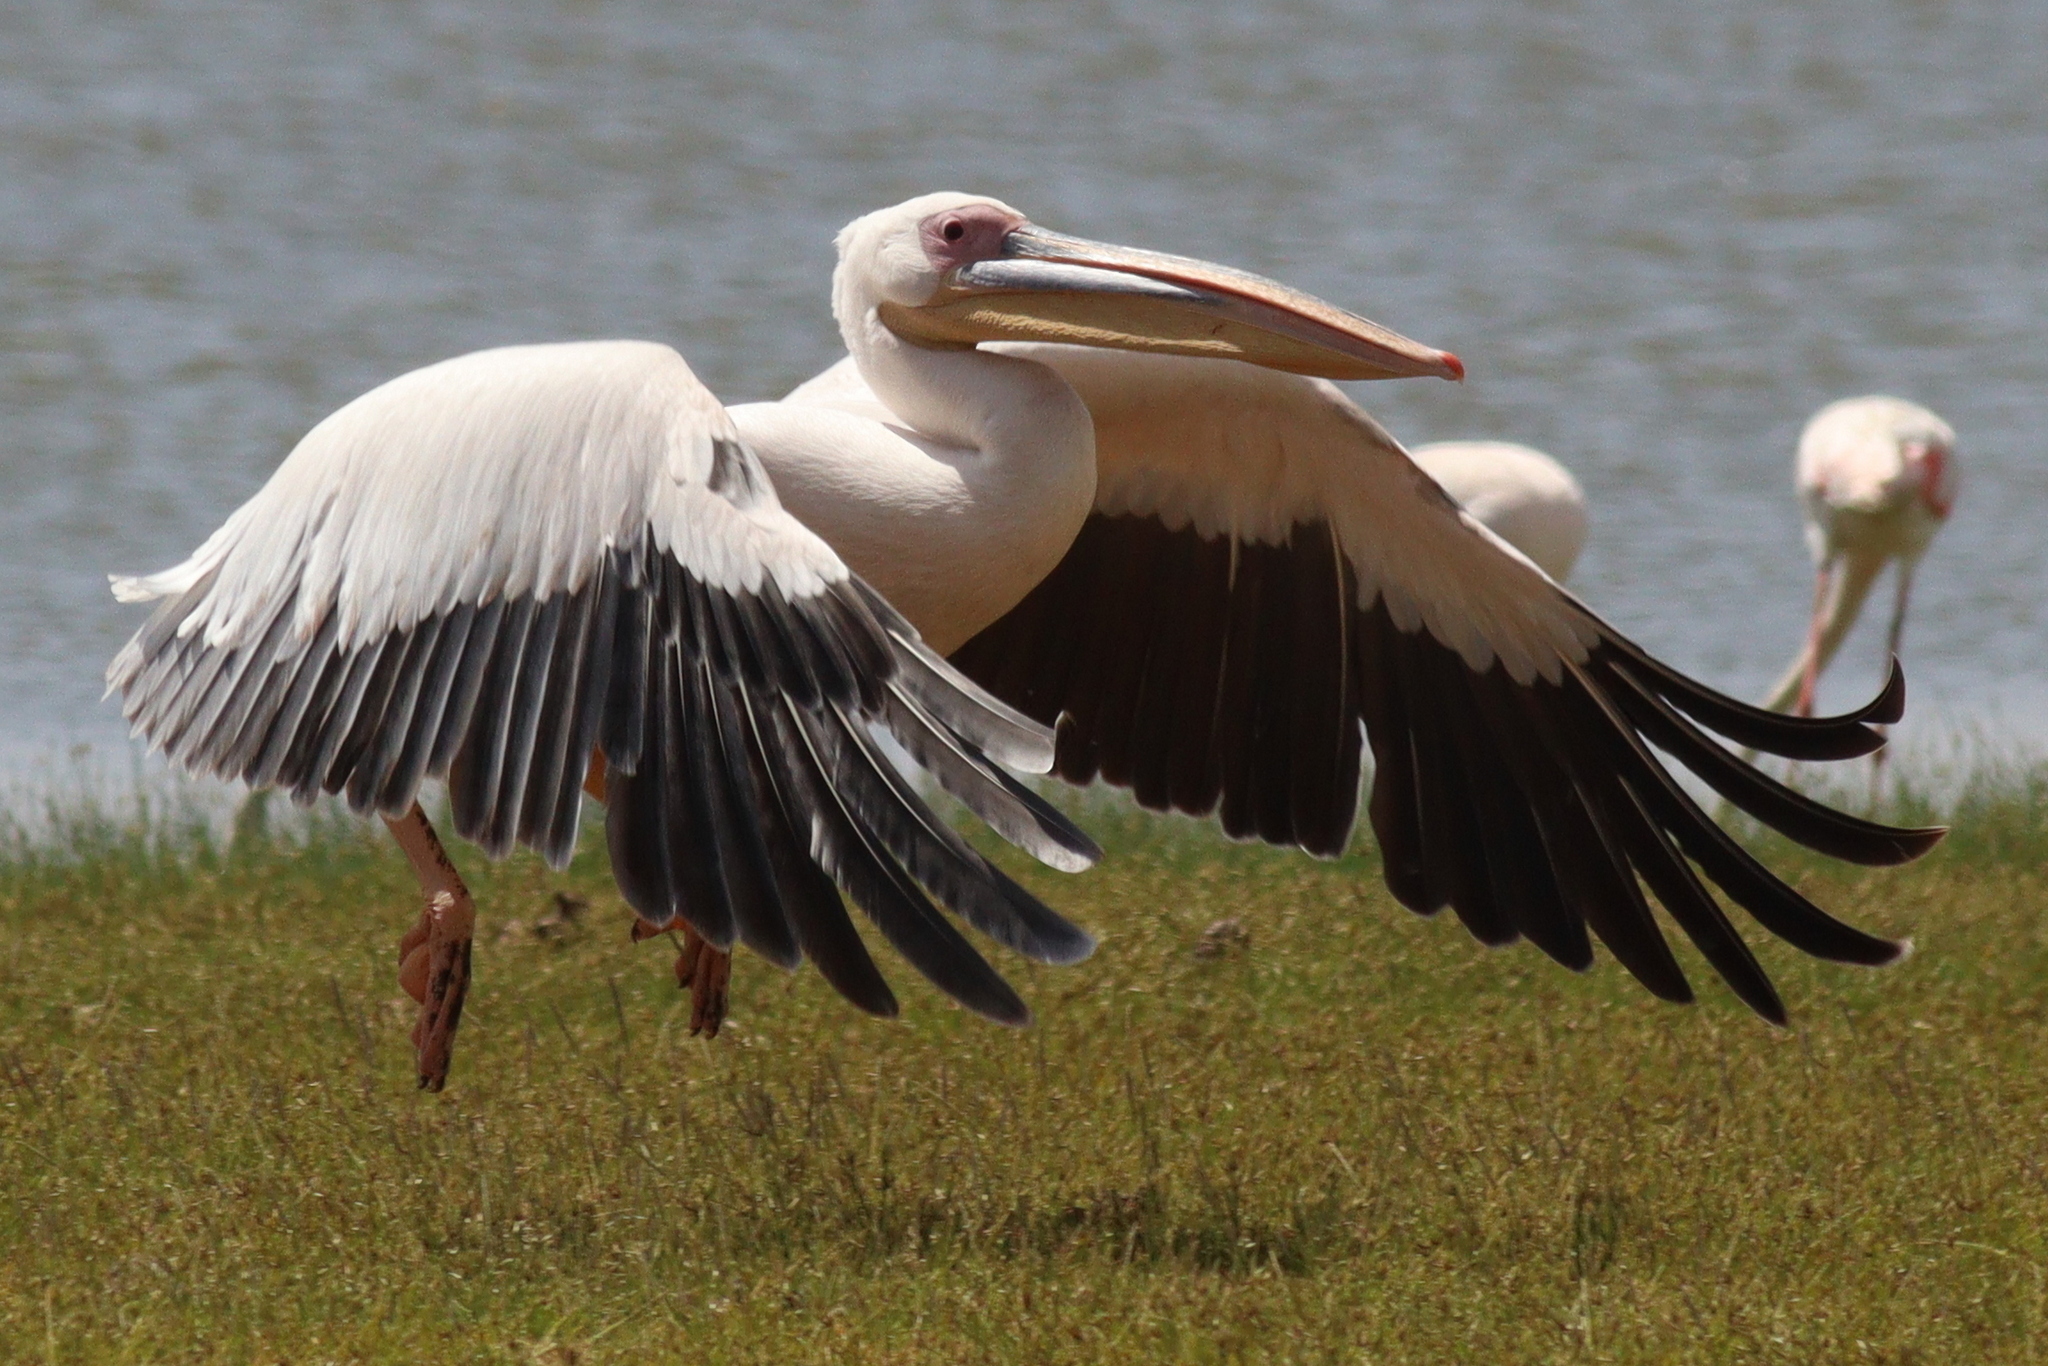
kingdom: Animalia
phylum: Chordata
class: Aves
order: Pelecaniformes
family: Pelecanidae
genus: Pelecanus
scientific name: Pelecanus onocrotalus
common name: Great white pelican
